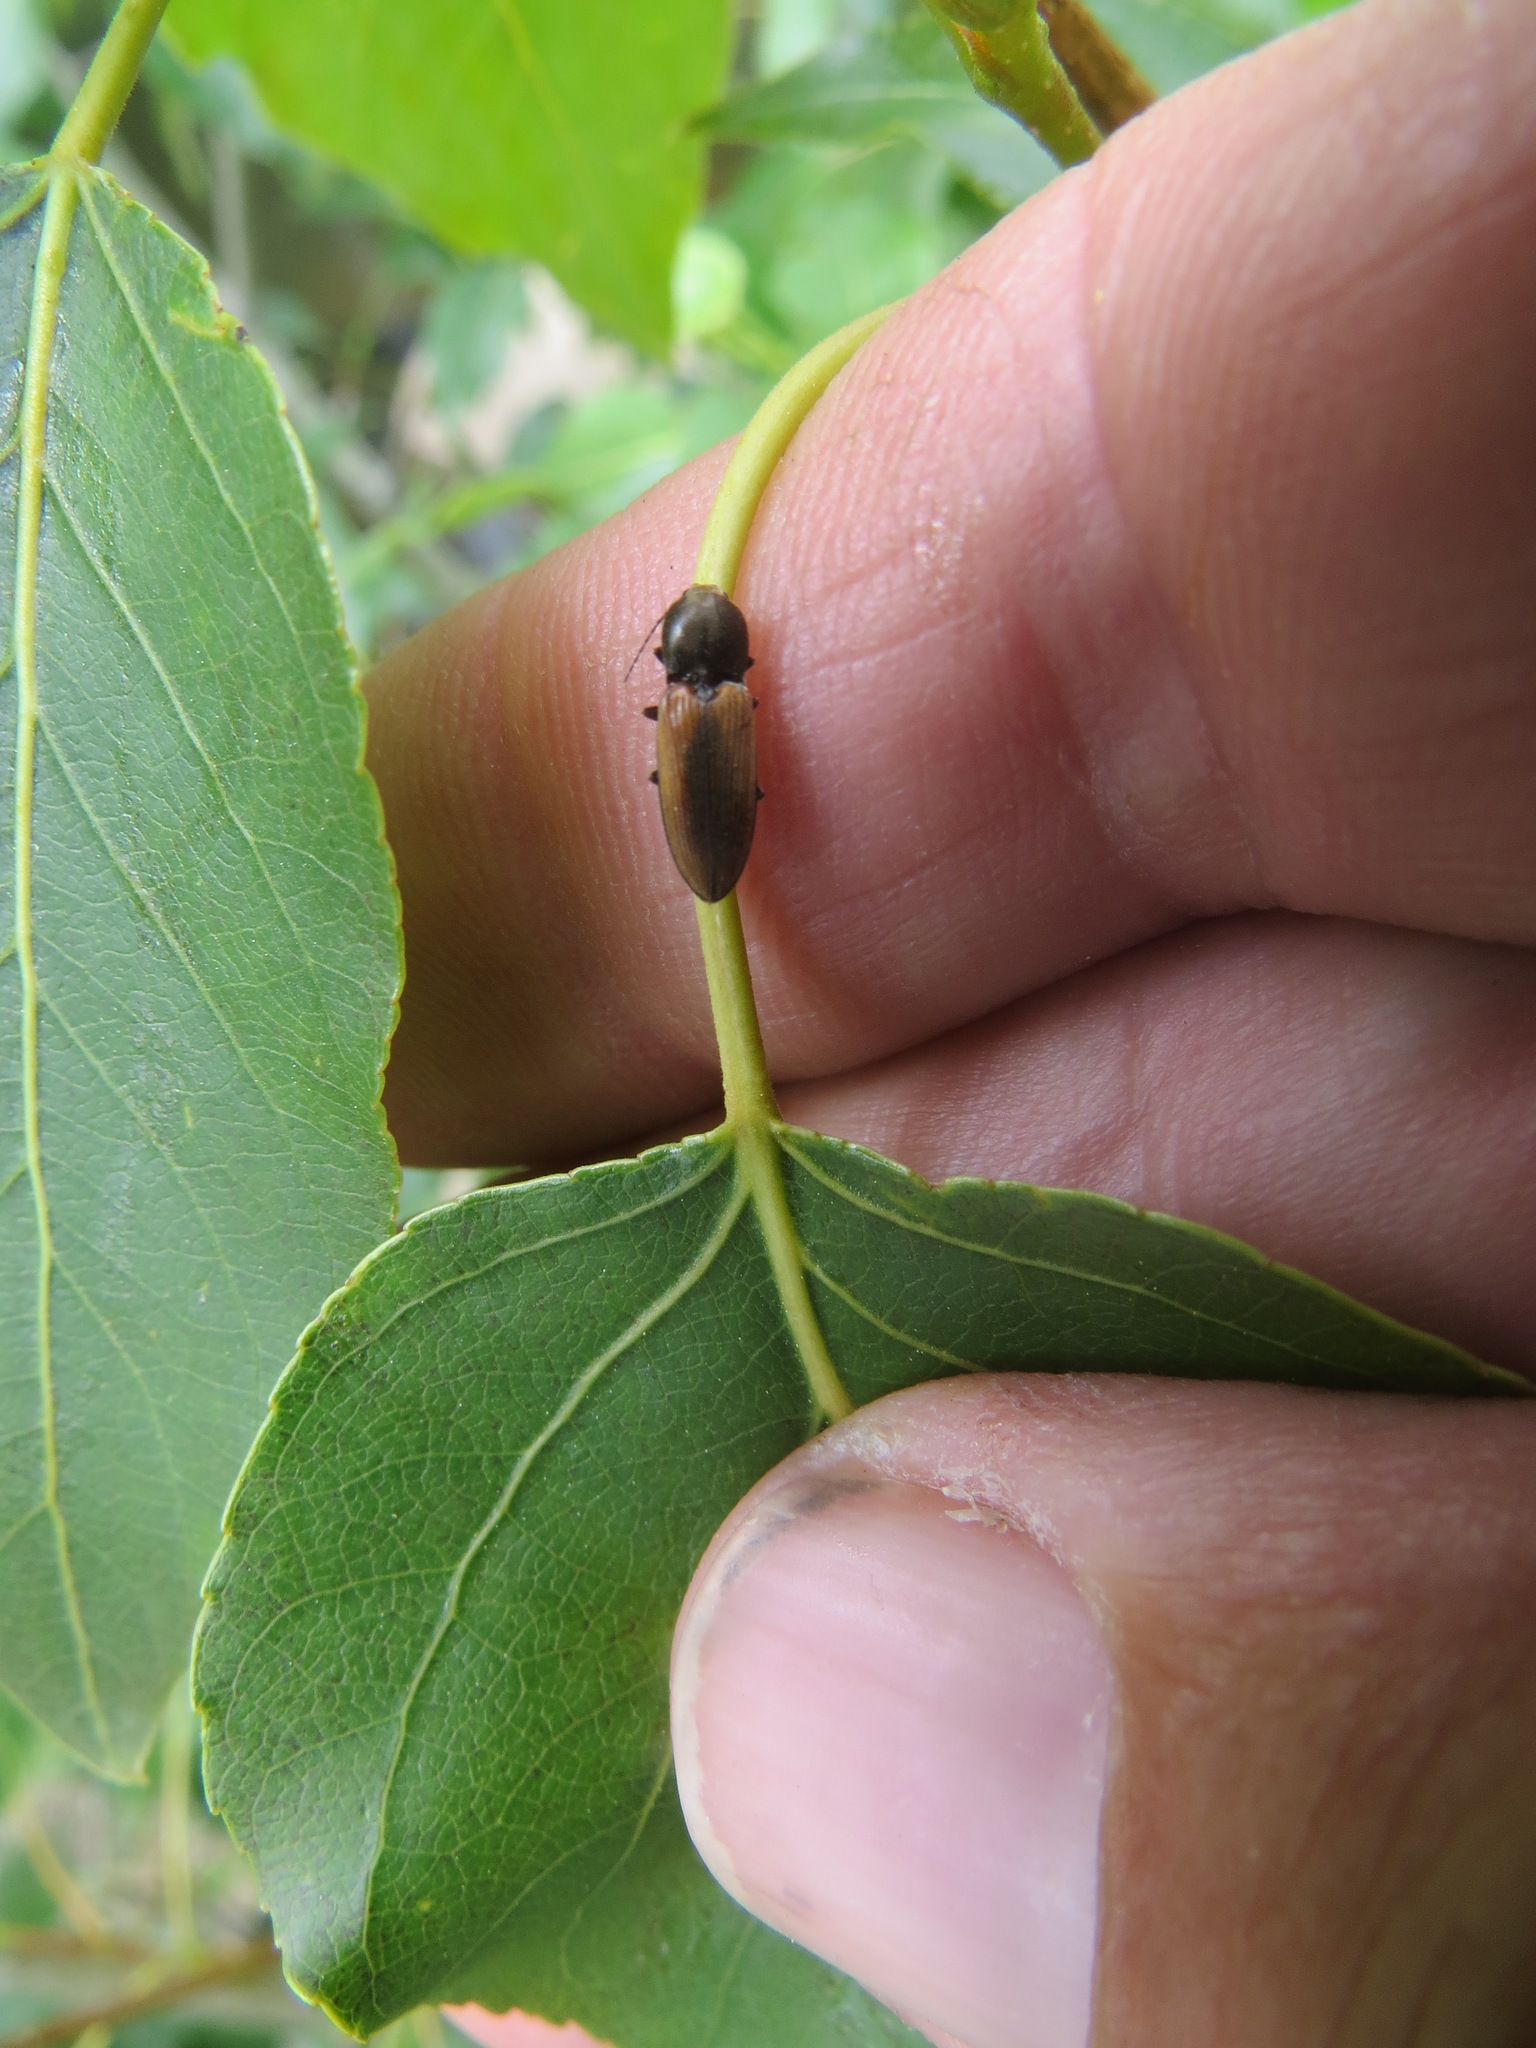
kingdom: Animalia
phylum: Arthropoda
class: Insecta
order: Coleoptera
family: Elateridae
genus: Cardiophorus
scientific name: Cardiophorus edwardsi
